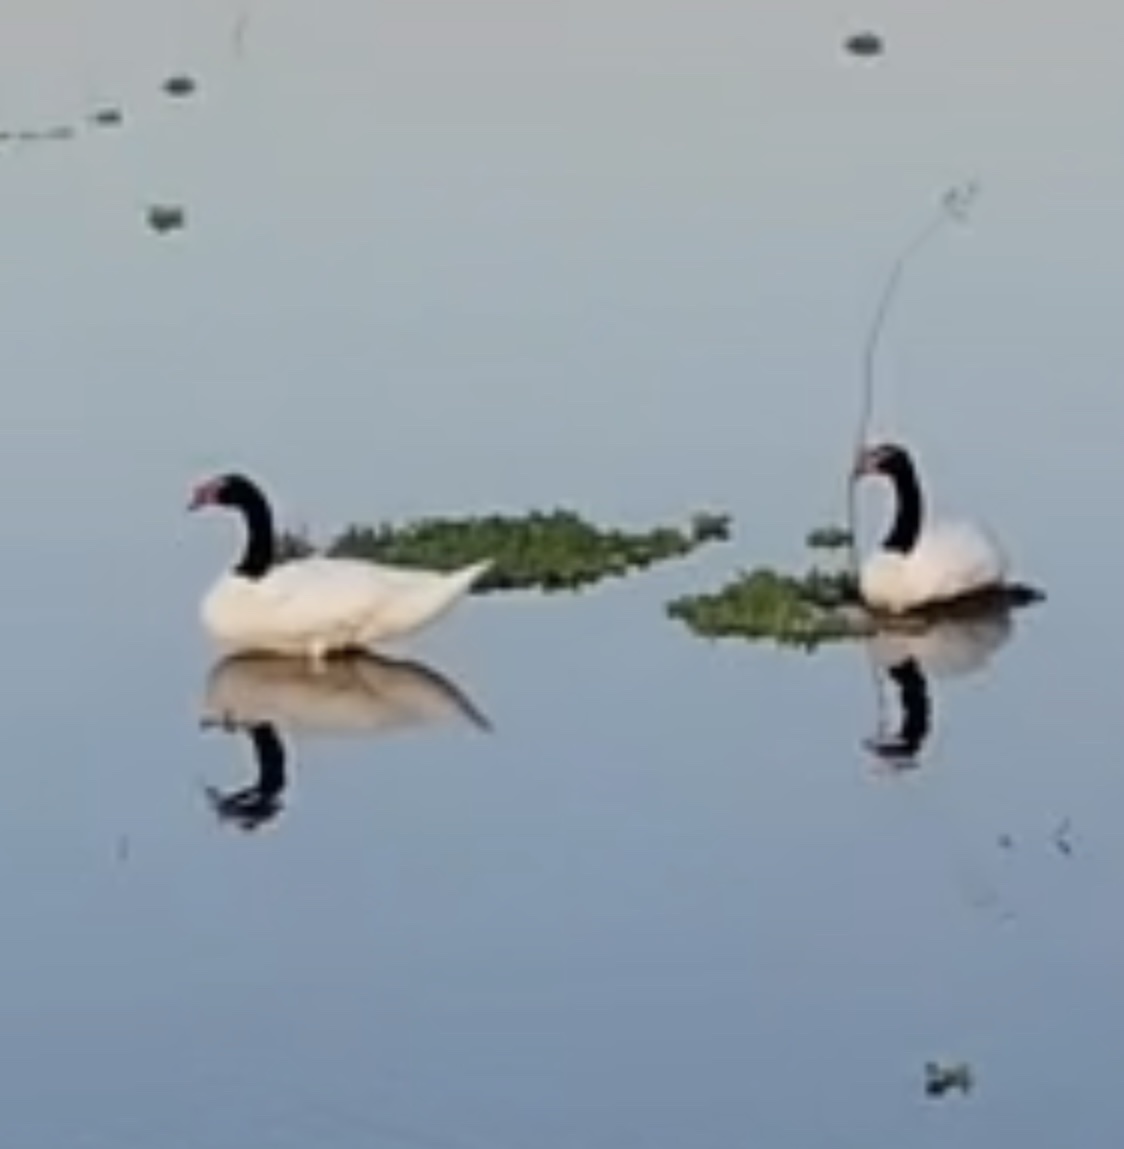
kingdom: Animalia
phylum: Chordata
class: Aves
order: Anseriformes
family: Anatidae
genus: Cygnus
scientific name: Cygnus melancoryphus
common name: Black-necked swan
